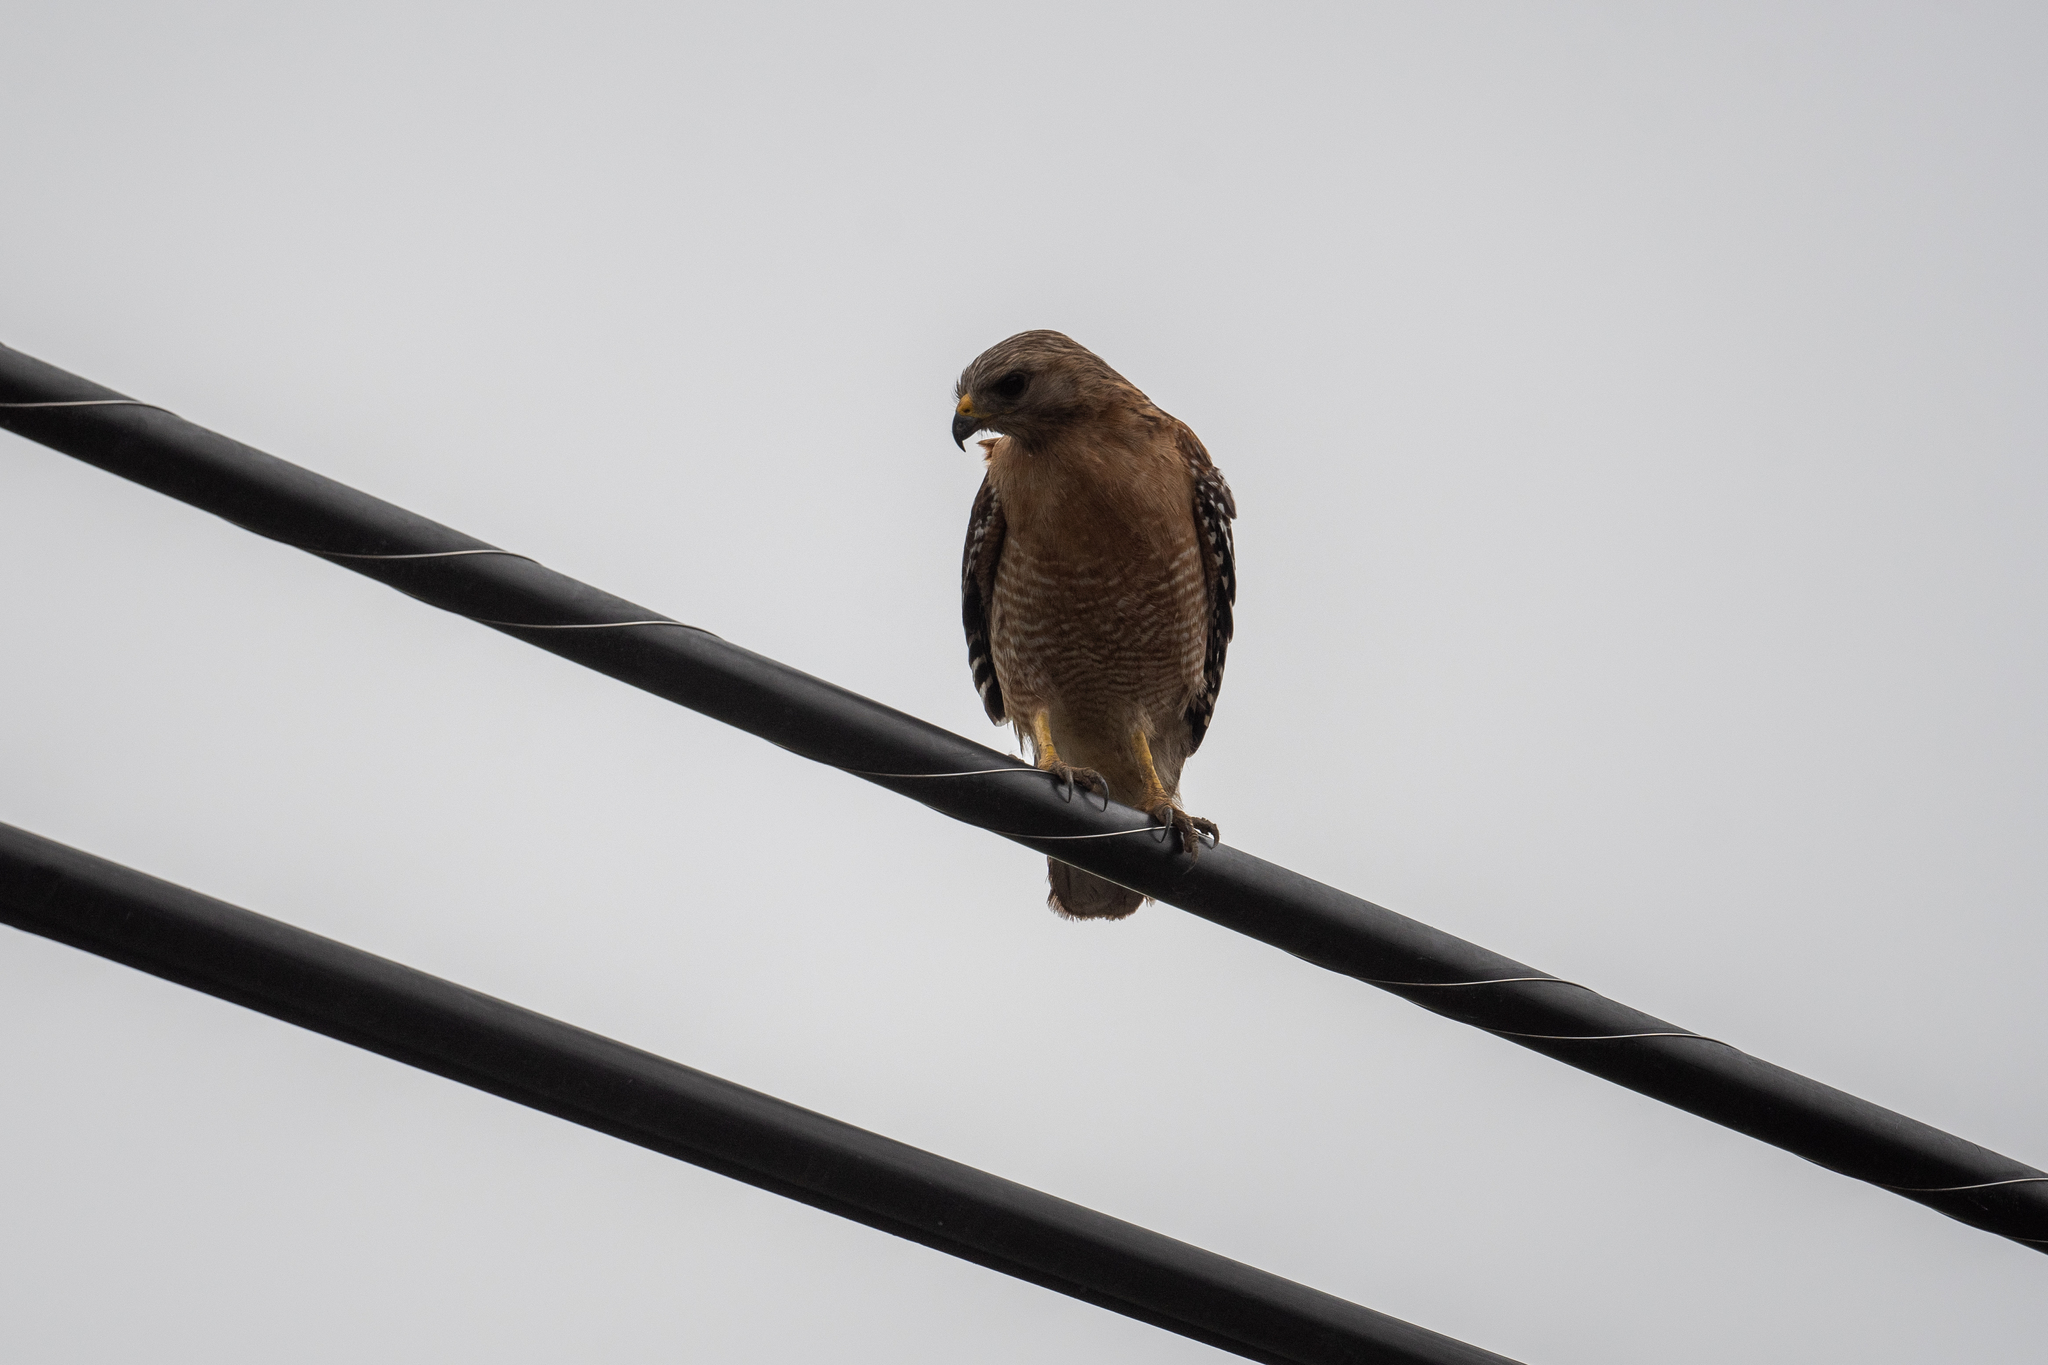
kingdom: Animalia
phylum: Chordata
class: Aves
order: Accipitriformes
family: Accipitridae
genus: Buteo
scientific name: Buteo lineatus
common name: Red-shouldered hawk
